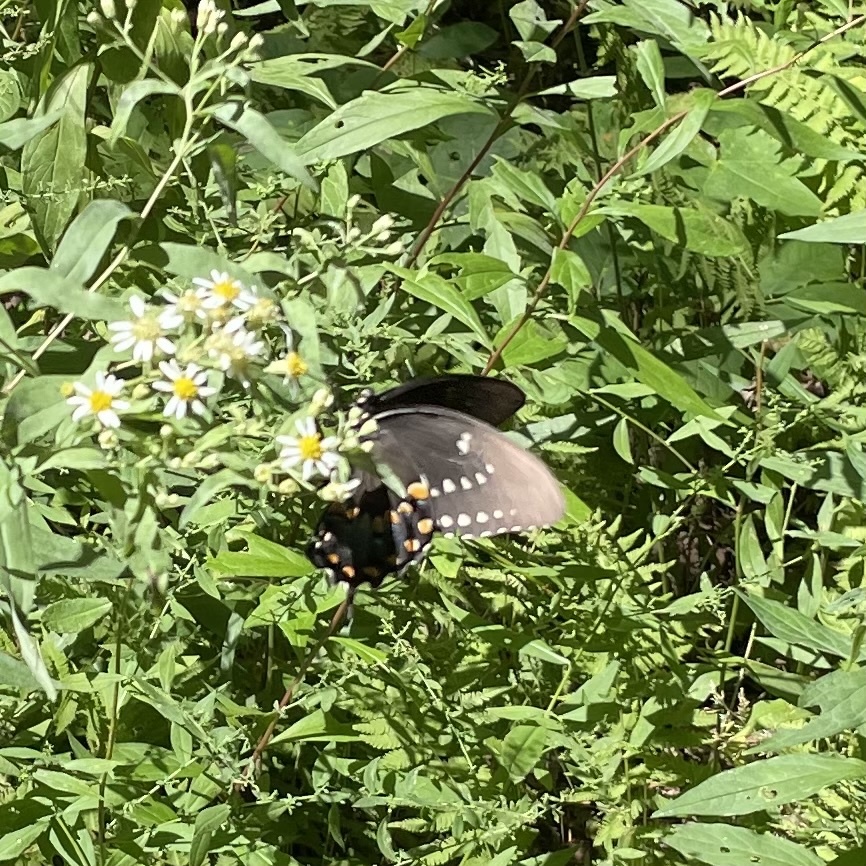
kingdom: Animalia
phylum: Arthropoda
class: Insecta
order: Lepidoptera
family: Papilionidae
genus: Papilio
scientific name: Papilio troilus
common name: Spicebush swallowtail
